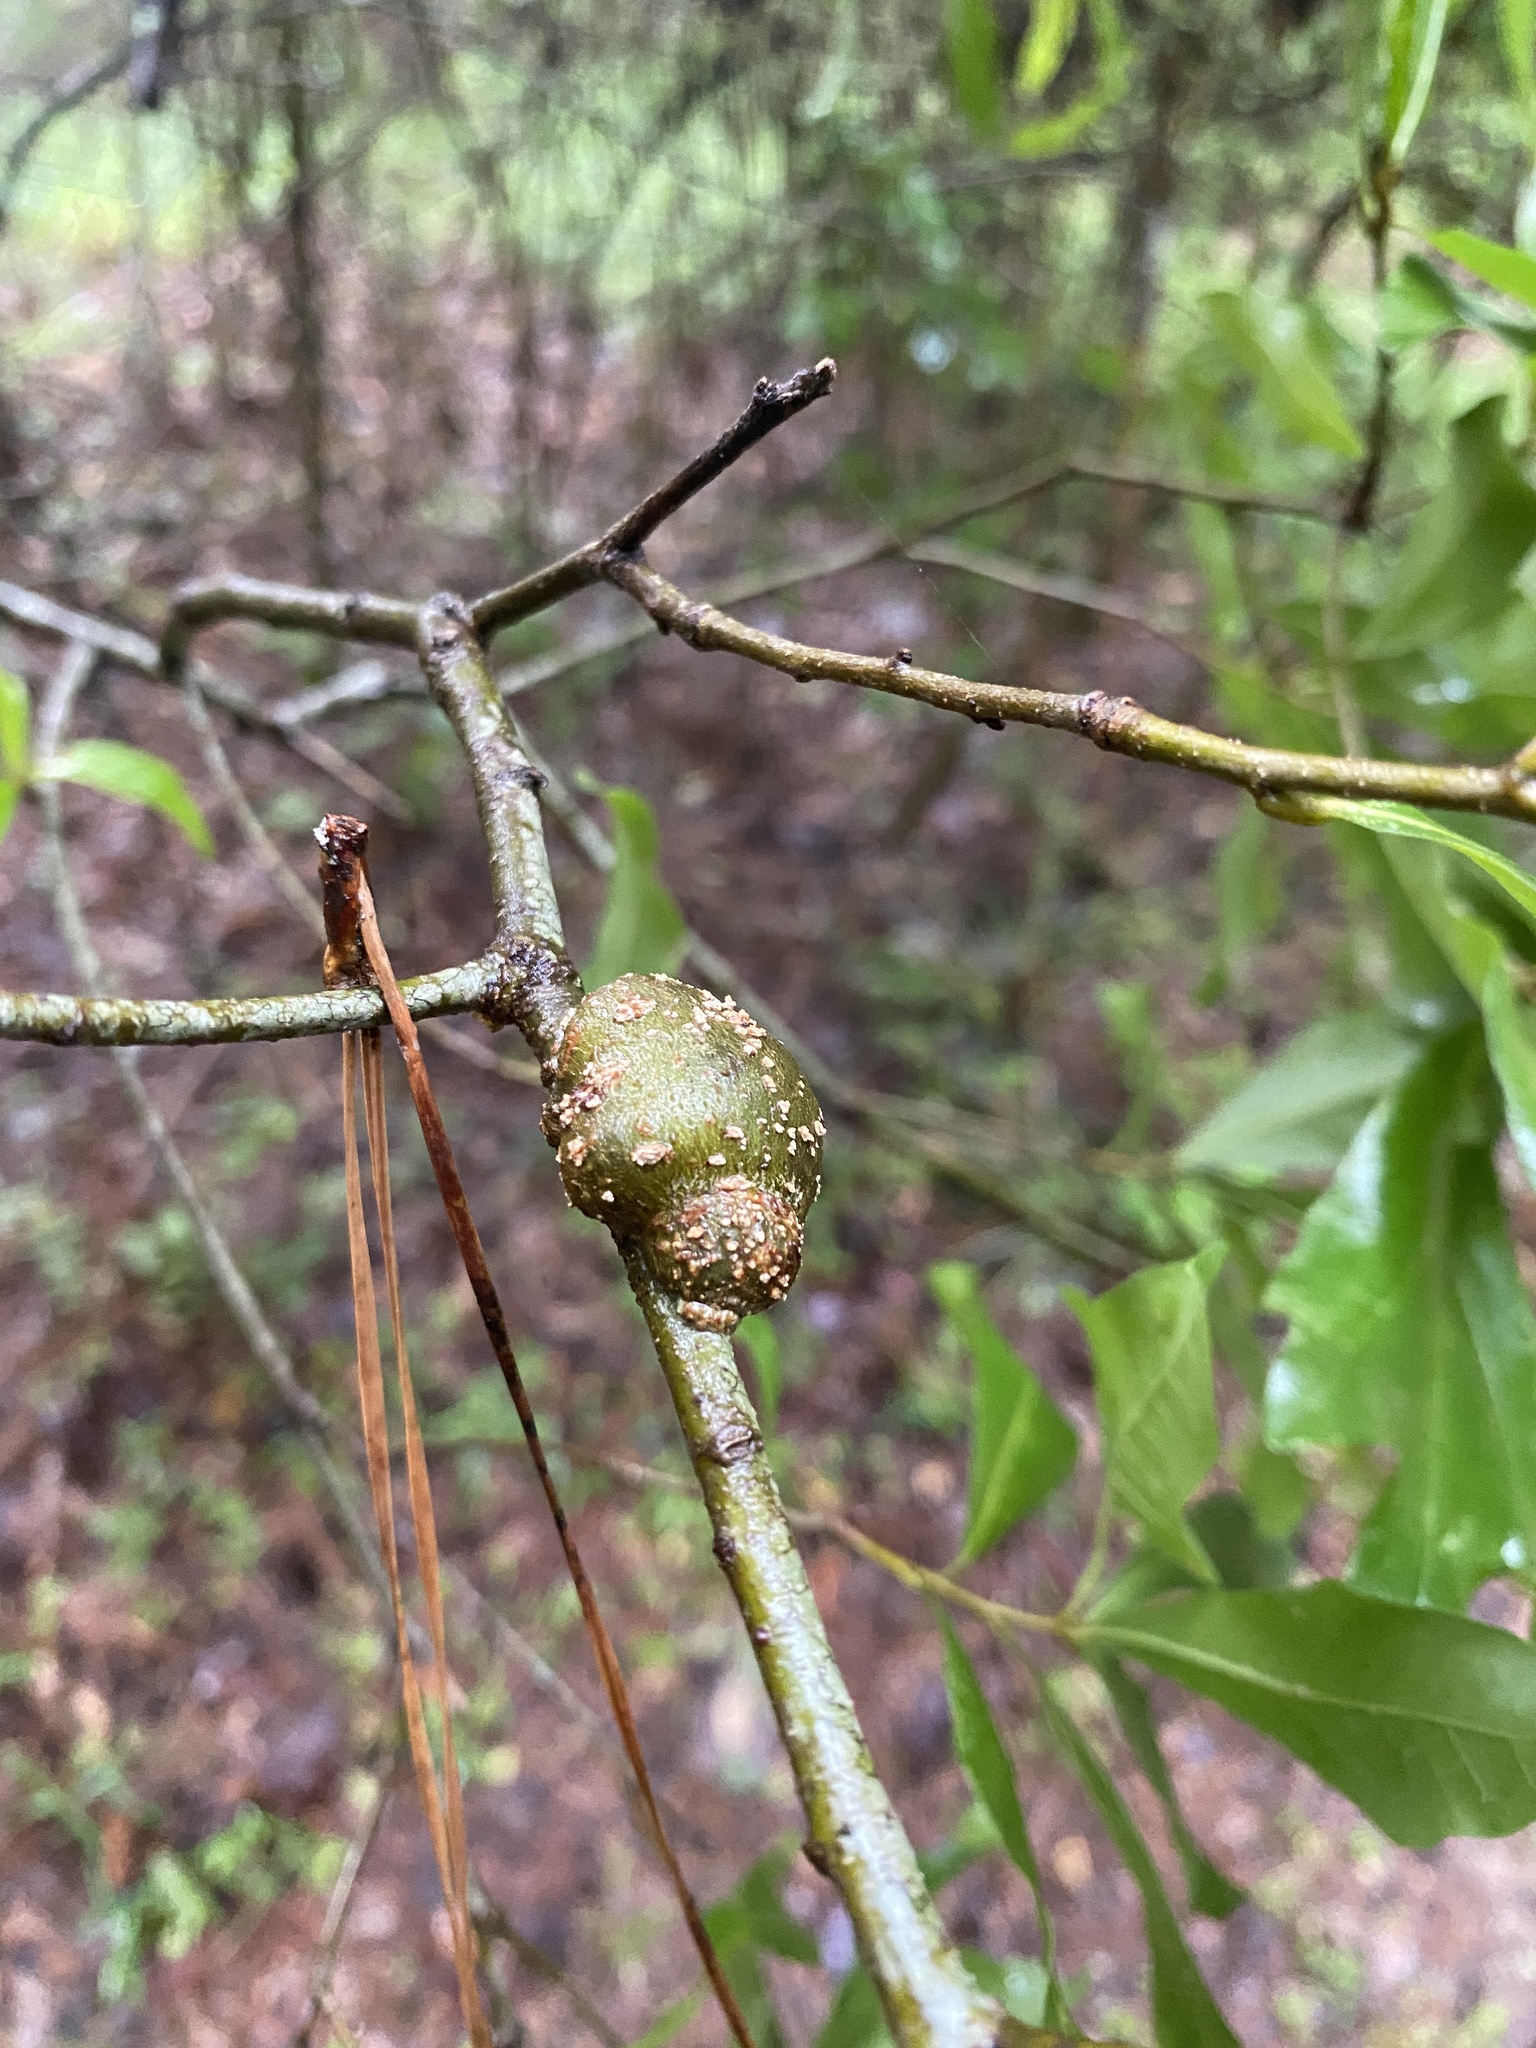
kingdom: Animalia
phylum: Arthropoda
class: Insecta
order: Hymenoptera
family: Cynipidae
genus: Synergus
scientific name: Synergus lignicola
